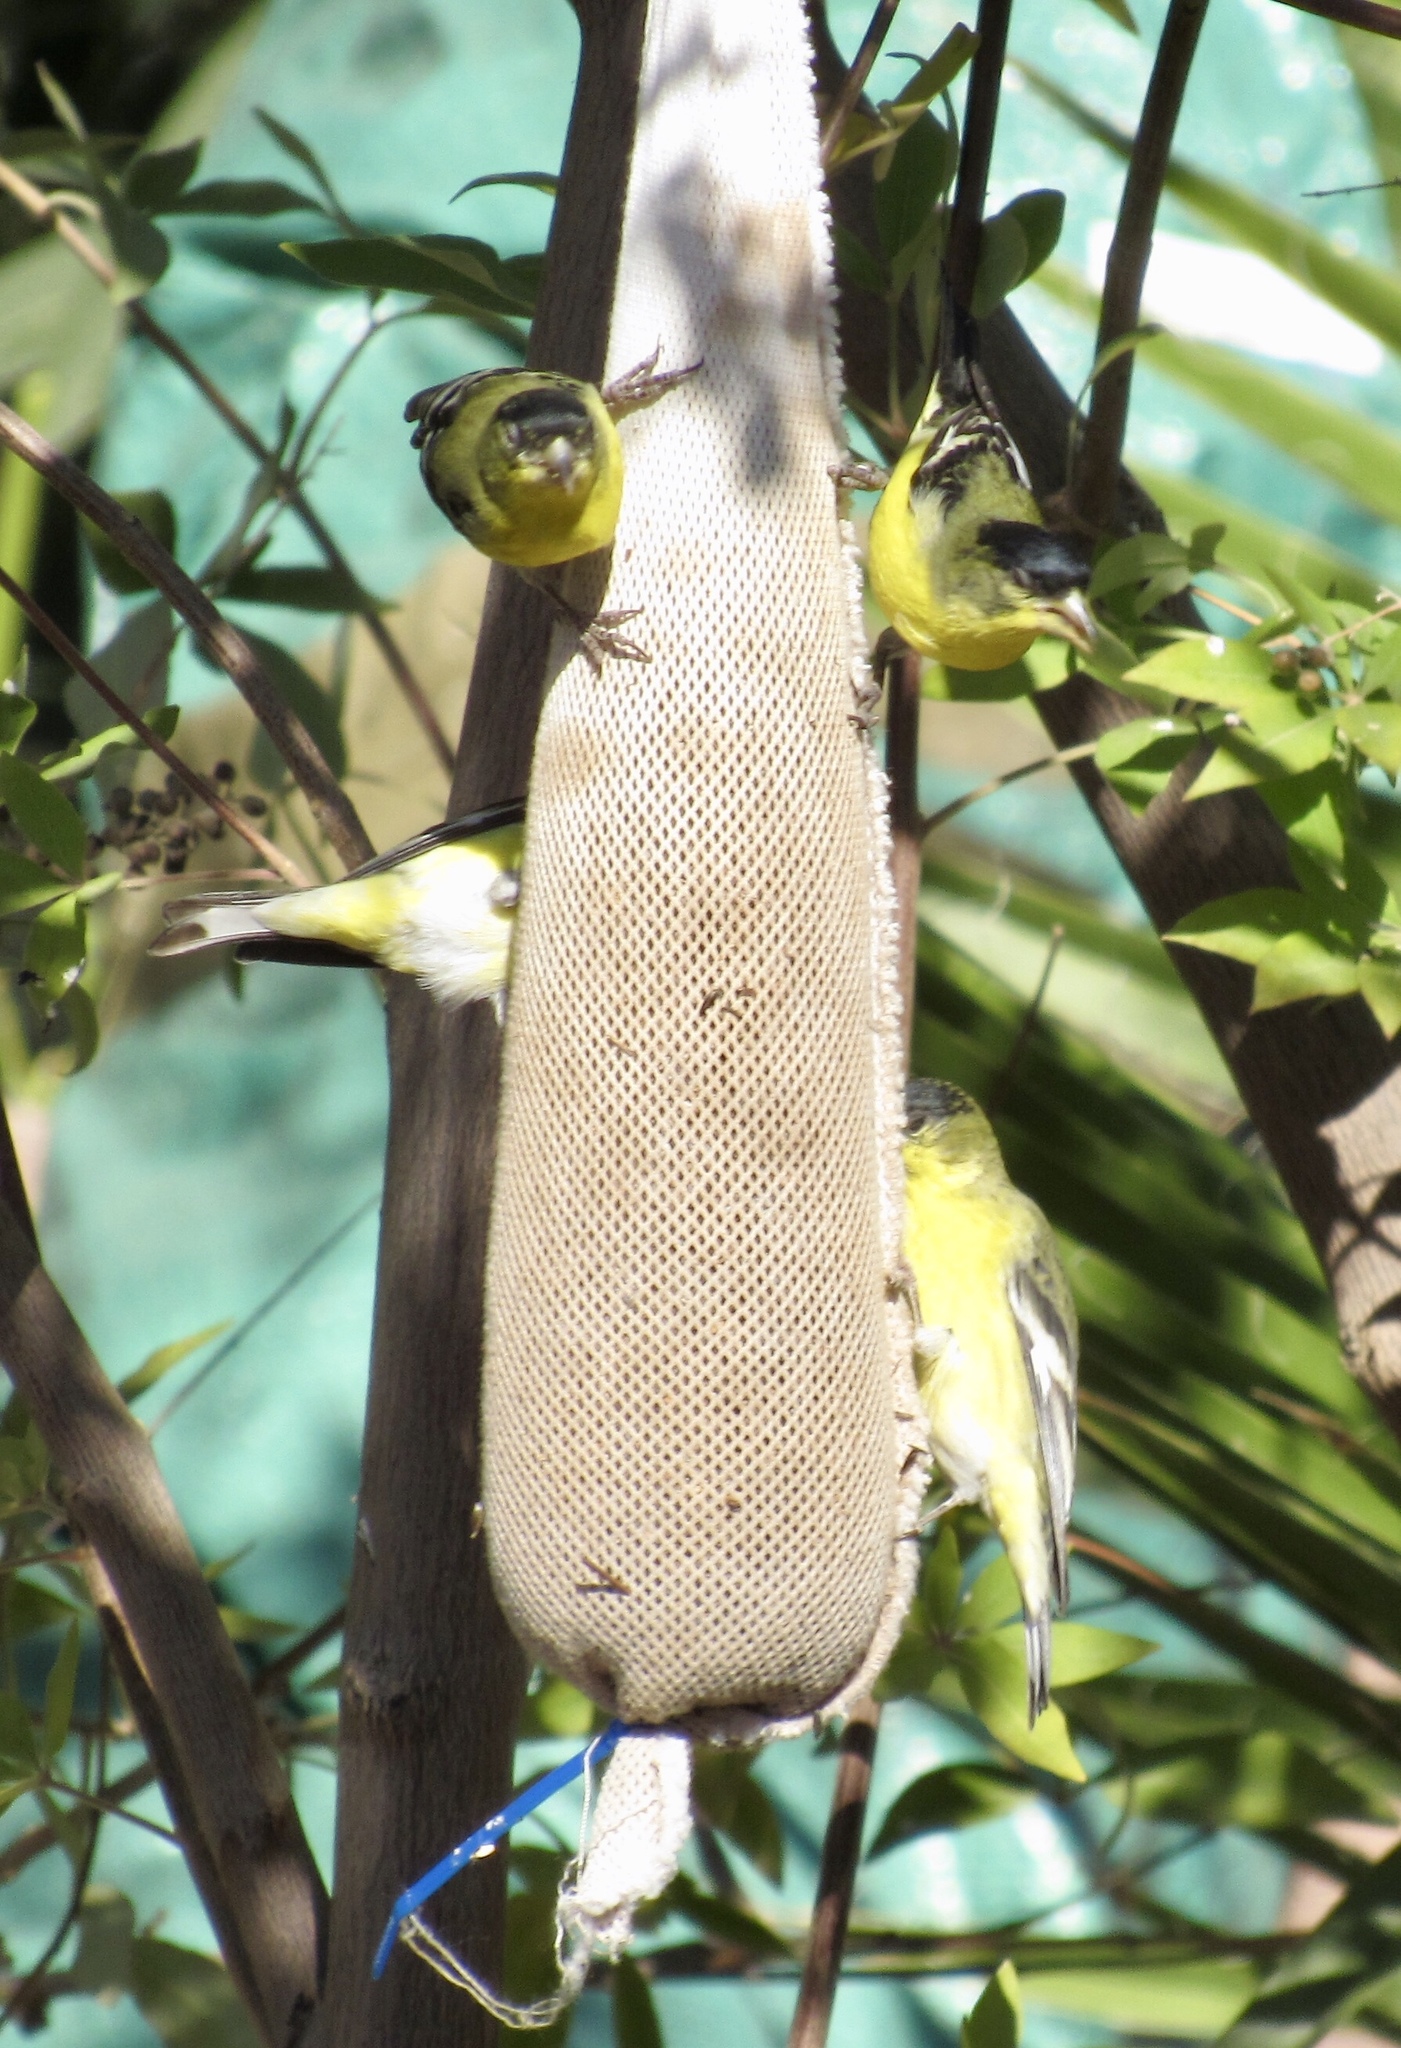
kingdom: Animalia
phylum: Chordata
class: Aves
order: Passeriformes
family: Fringillidae
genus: Spinus
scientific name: Spinus psaltria
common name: Lesser goldfinch
